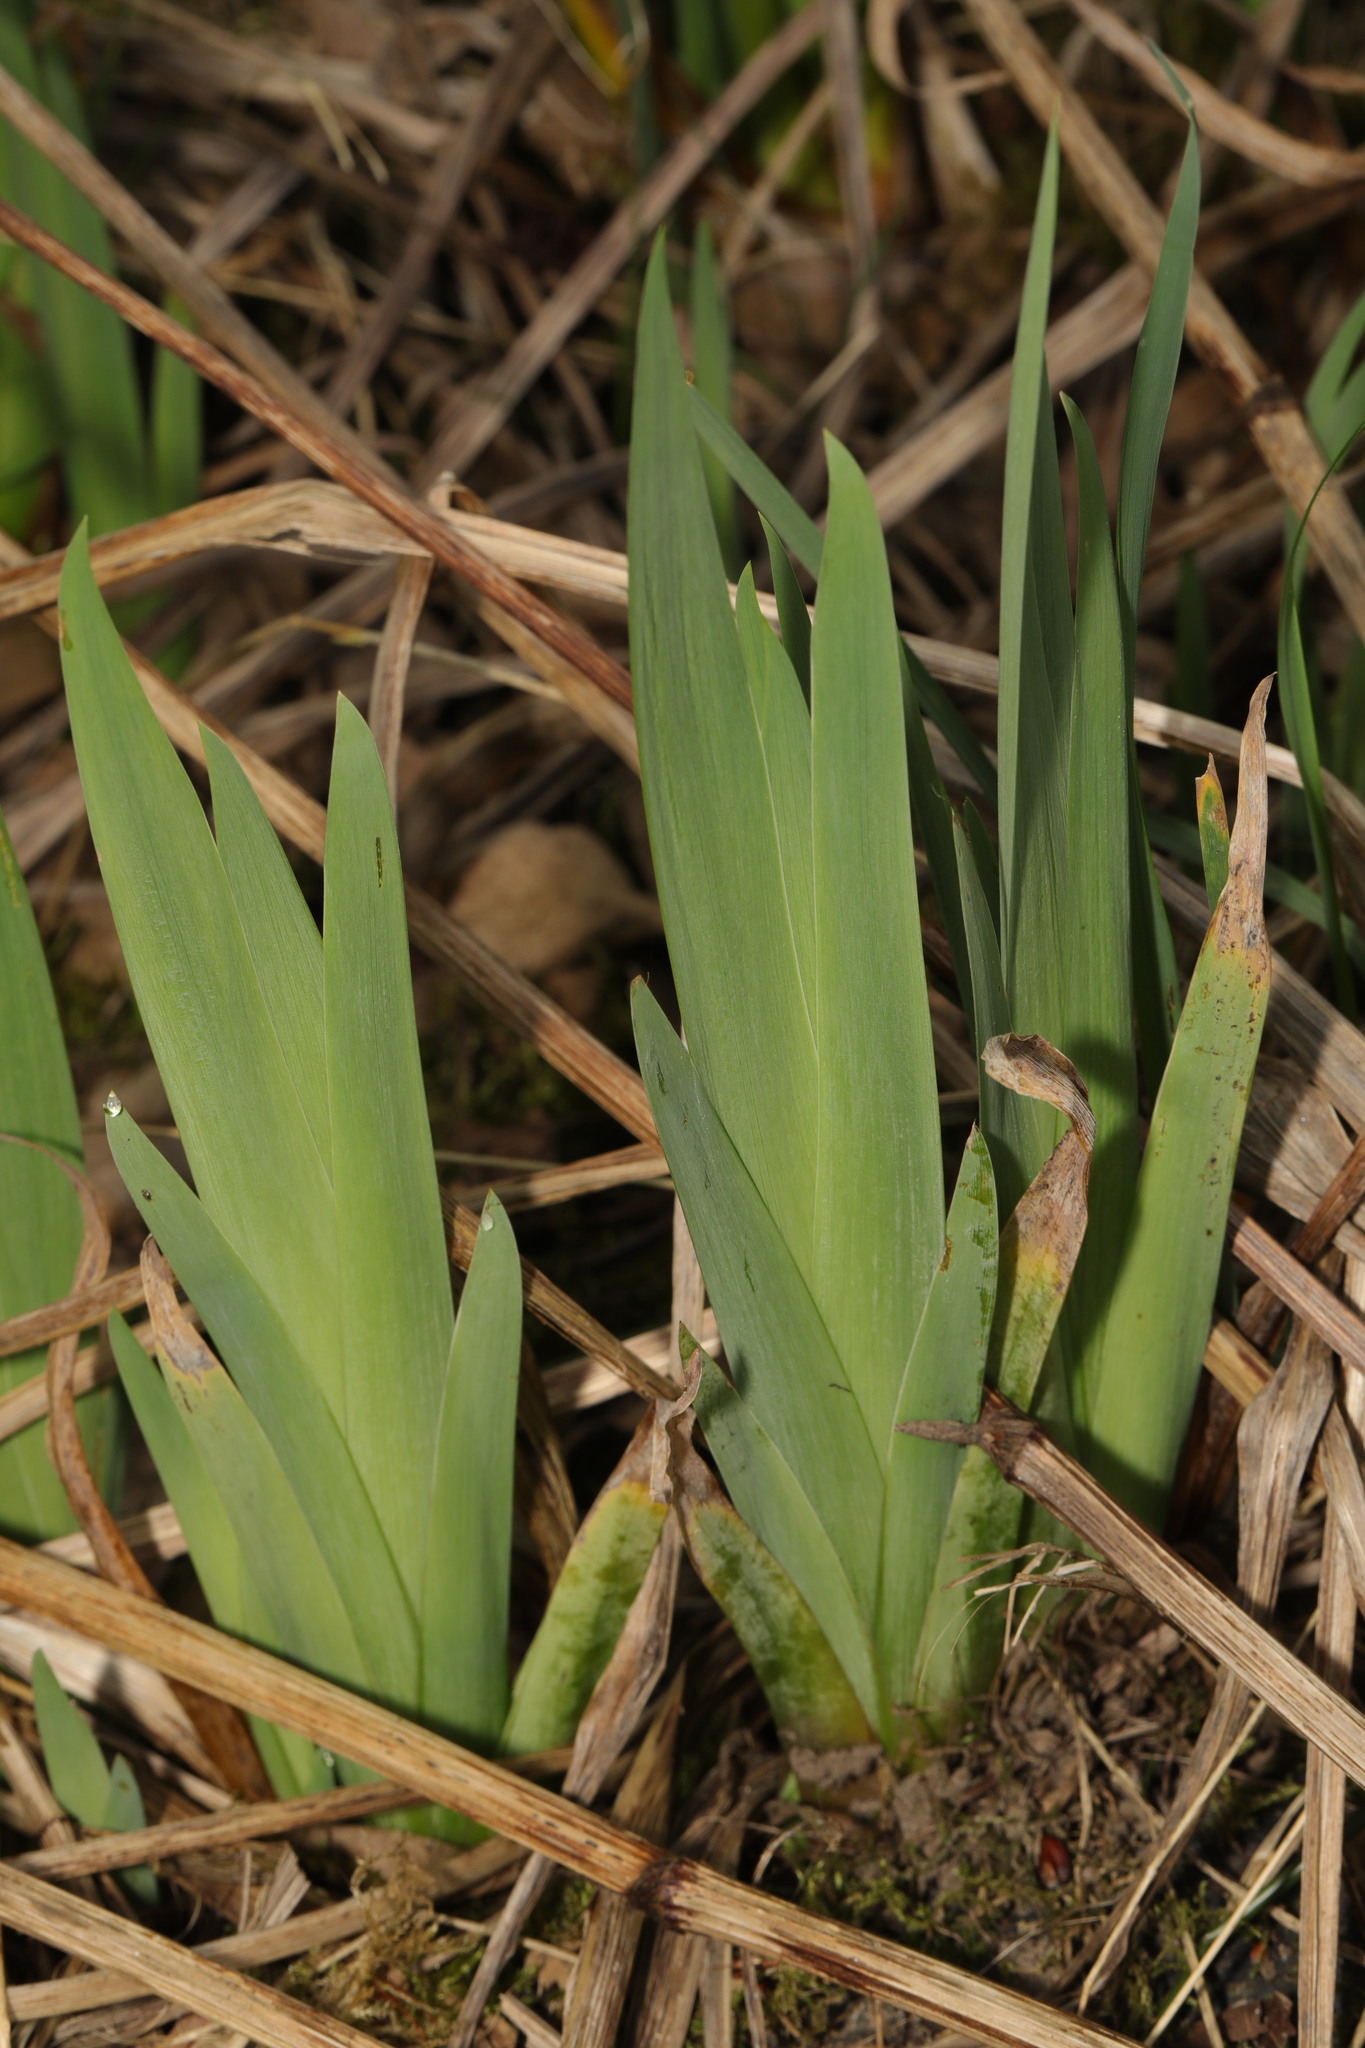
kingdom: Plantae
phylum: Tracheophyta
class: Liliopsida
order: Asparagales
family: Iridaceae
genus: Iris
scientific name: Iris pseudacorus
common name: Yellow flag
